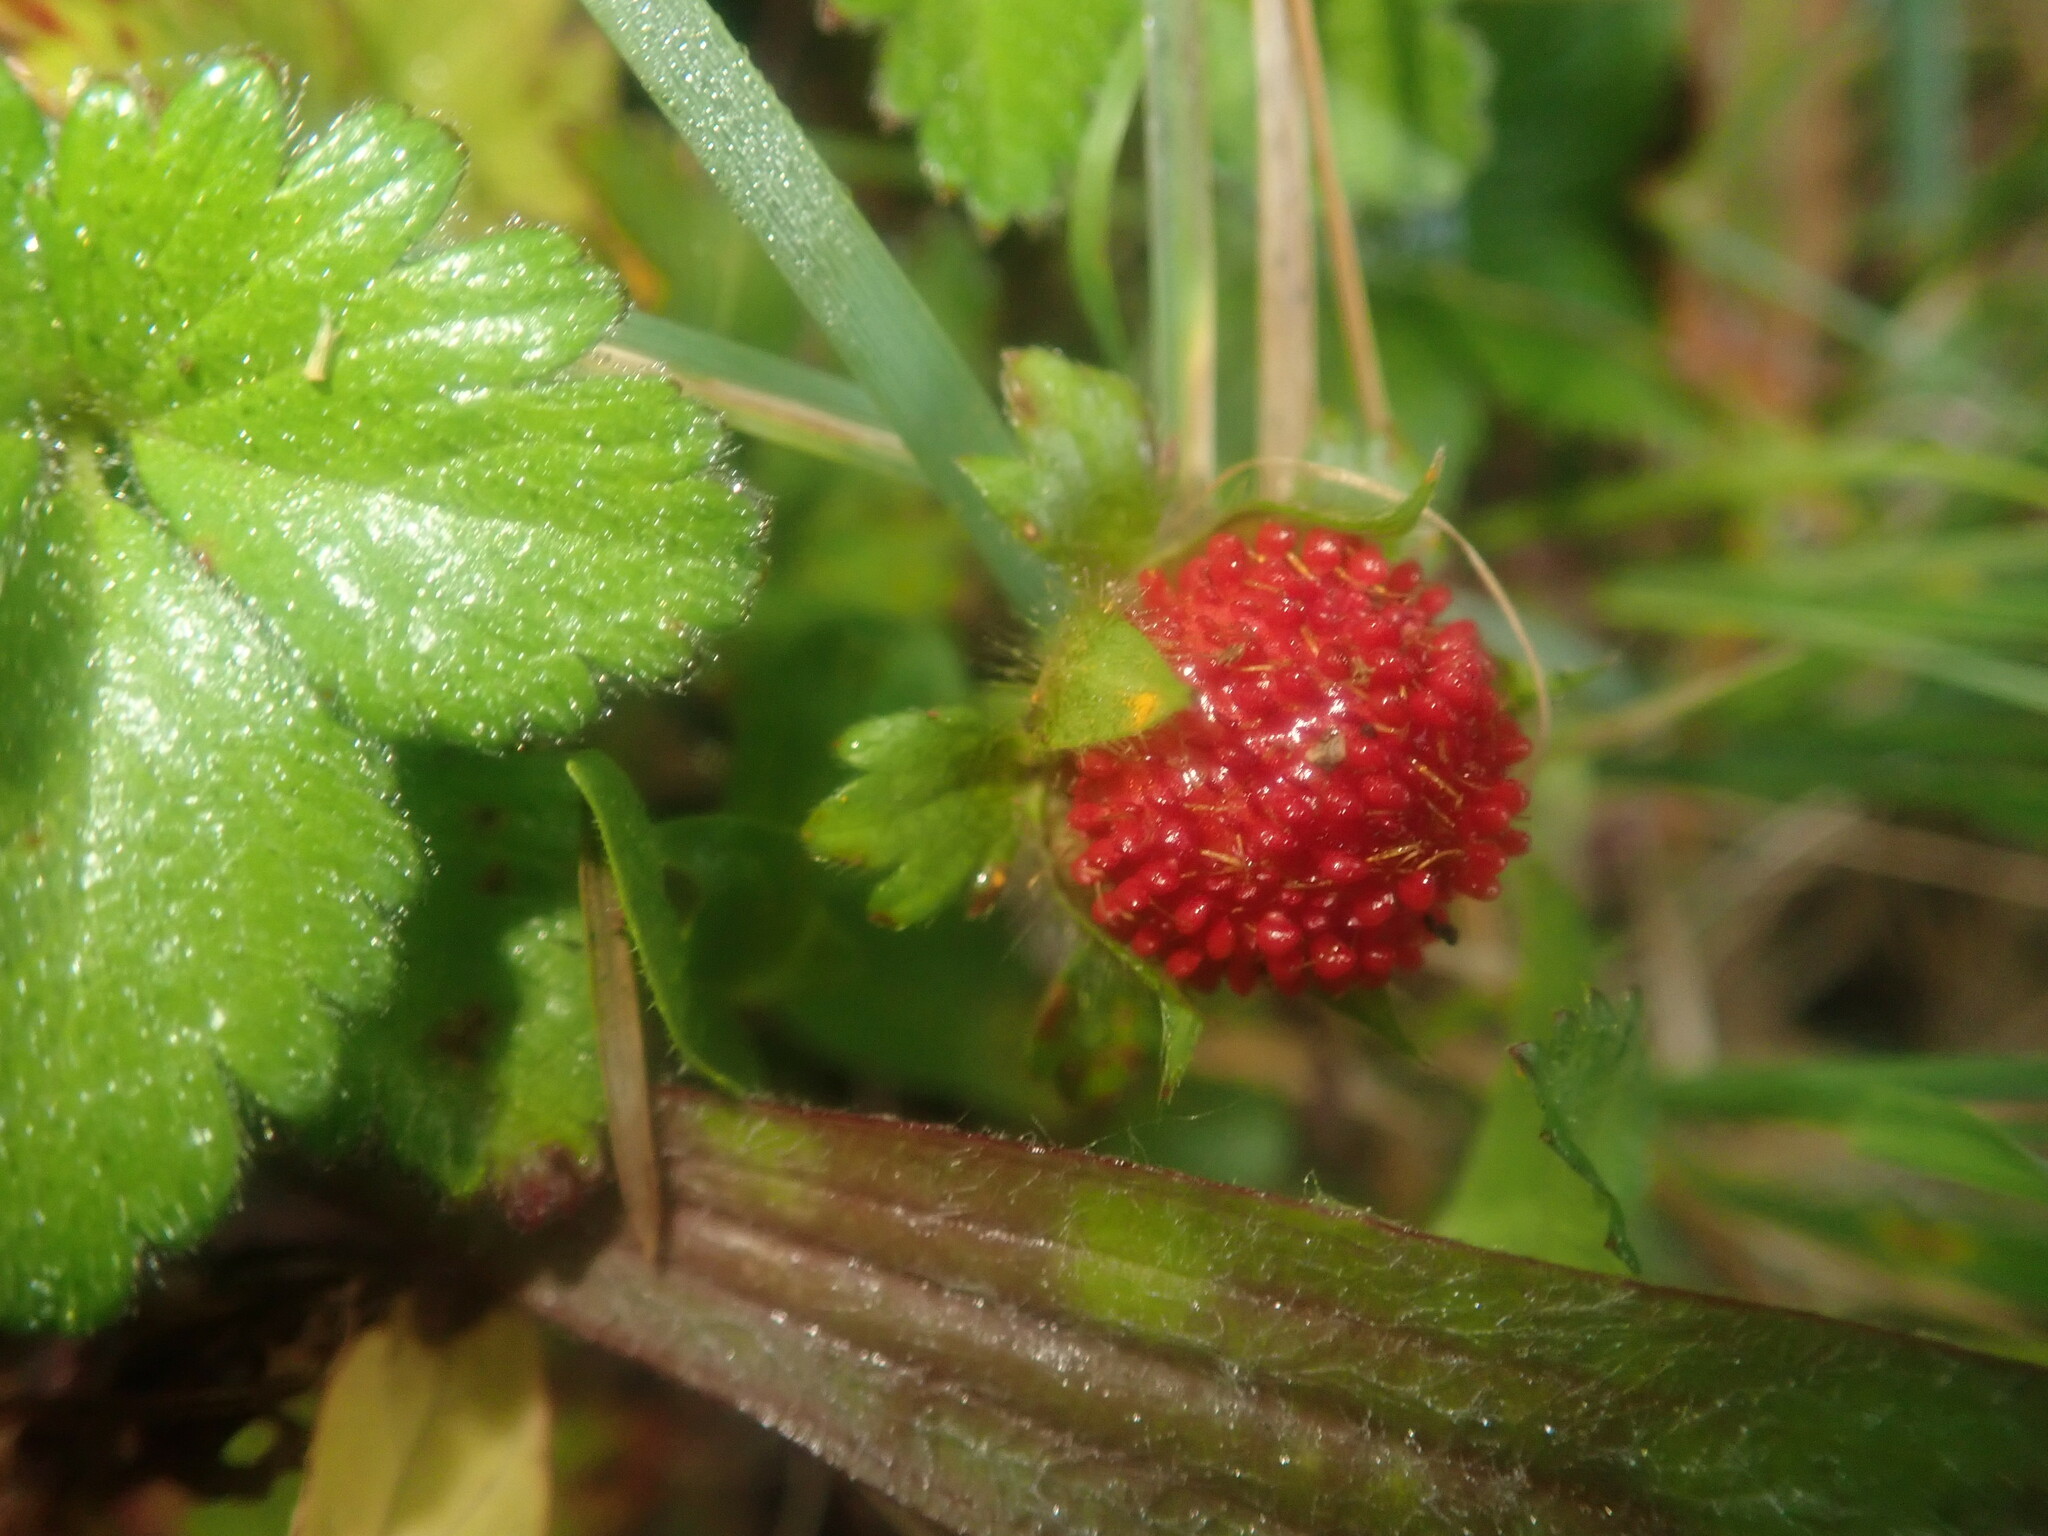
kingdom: Plantae
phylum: Tracheophyta
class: Magnoliopsida
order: Rosales
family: Rosaceae
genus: Potentilla
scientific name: Potentilla indica
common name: Yellow-flowered strawberry
